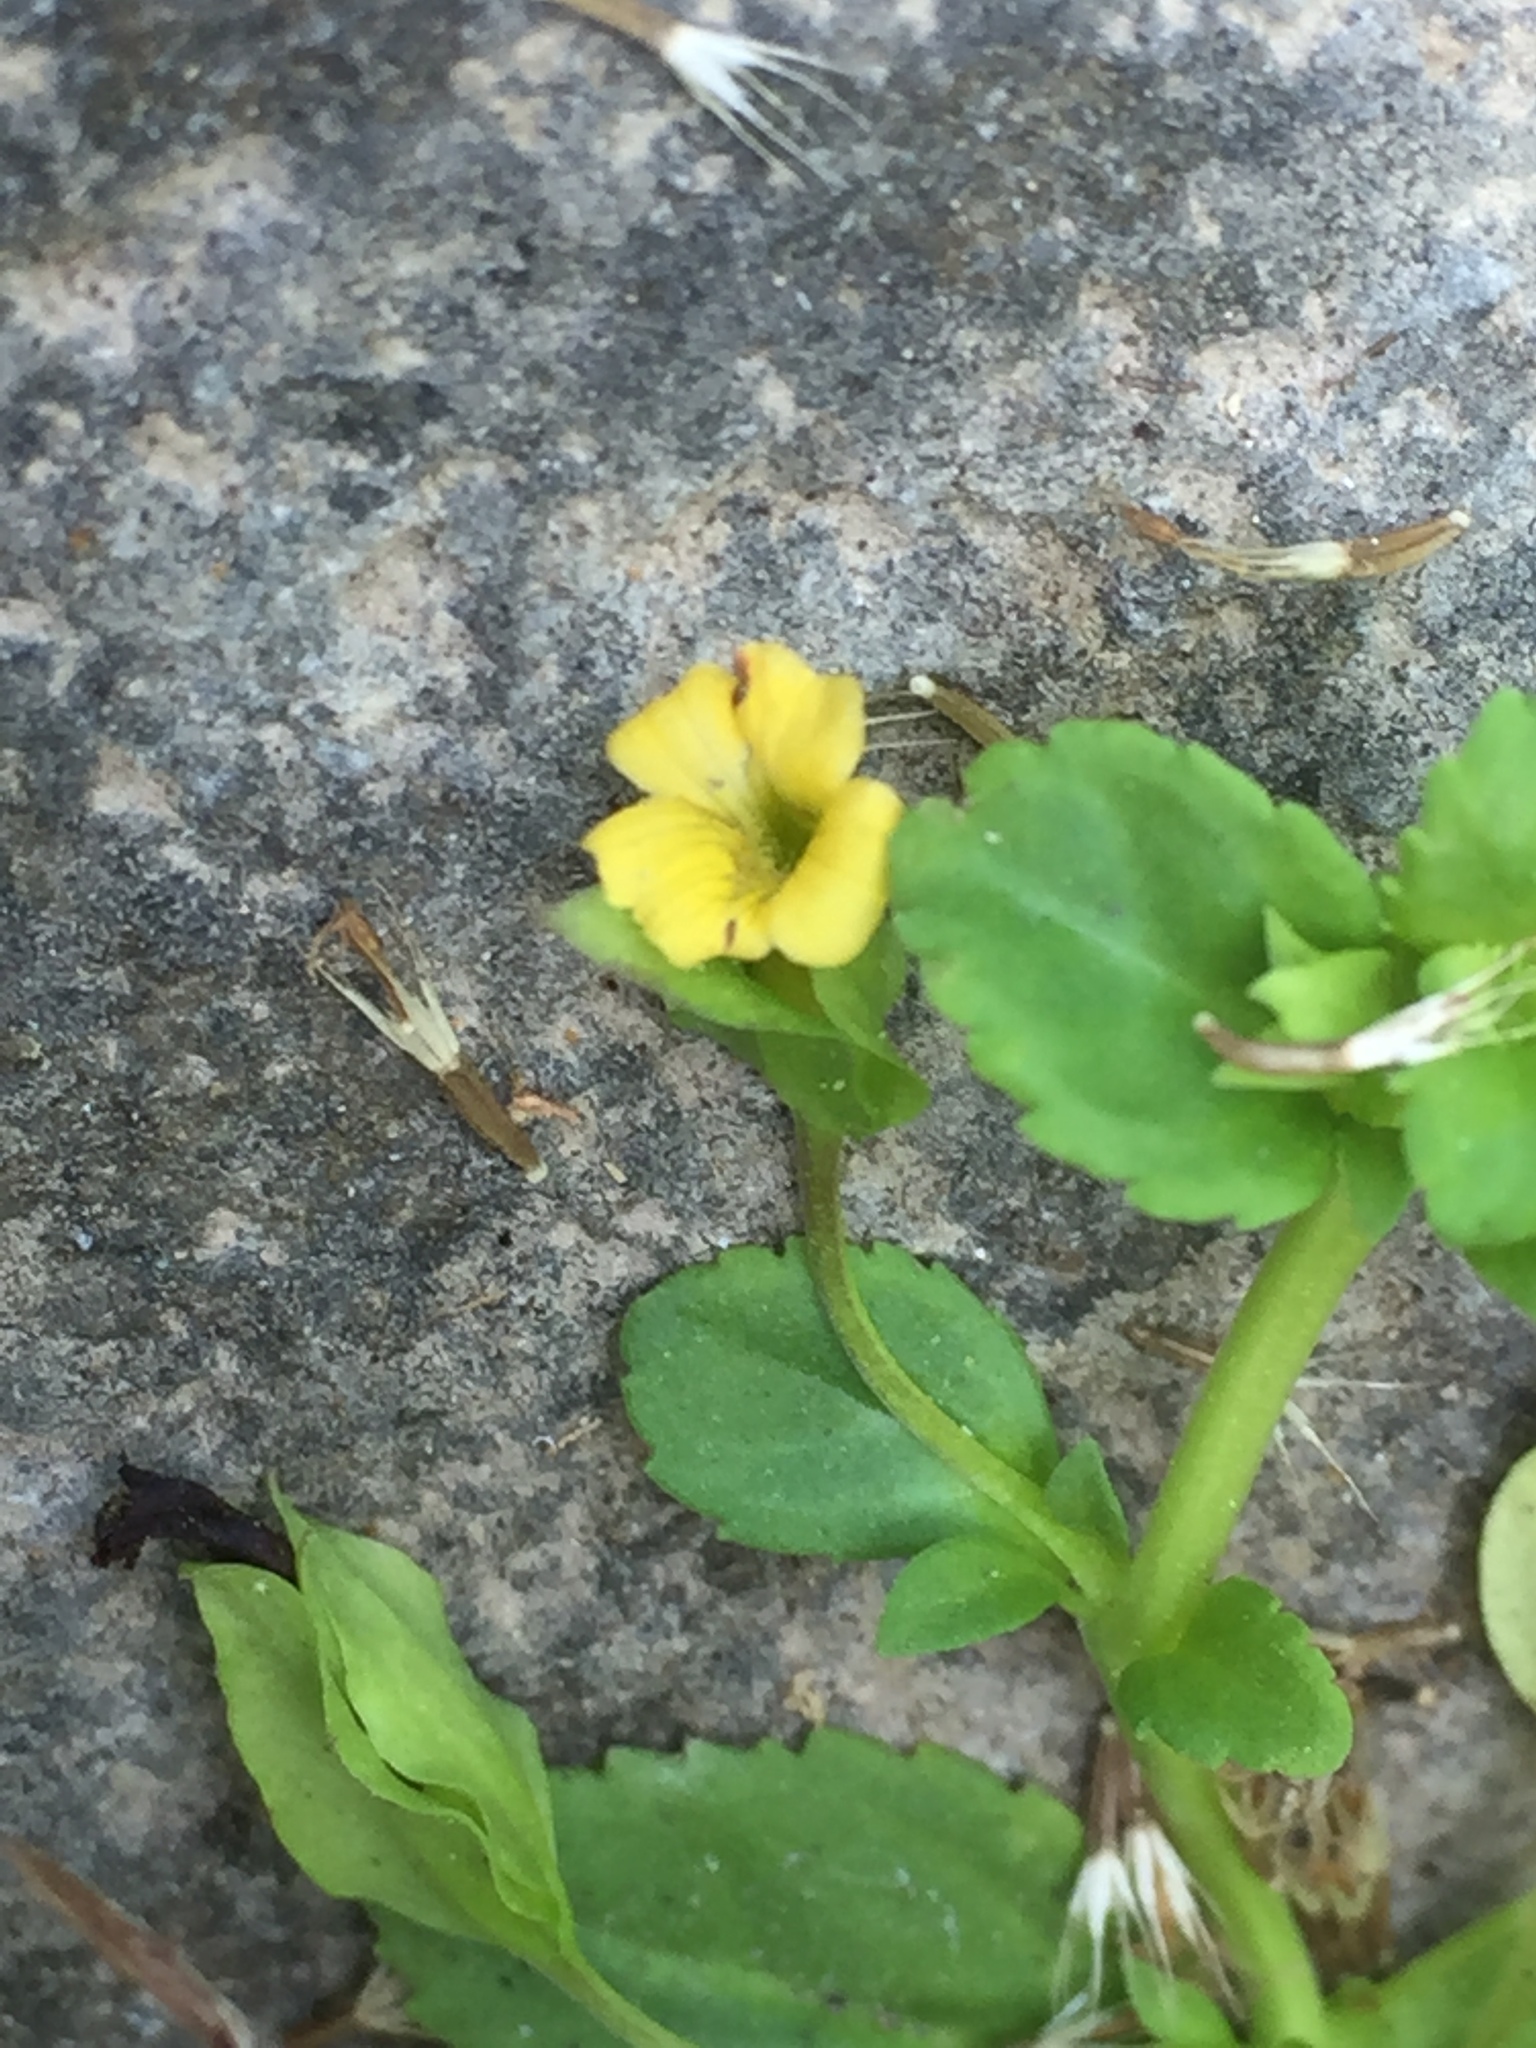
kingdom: Plantae
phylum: Tracheophyta
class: Magnoliopsida
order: Lamiales
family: Plantaginaceae
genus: Mecardonia
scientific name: Mecardonia procumbens
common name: Baby jump-up
